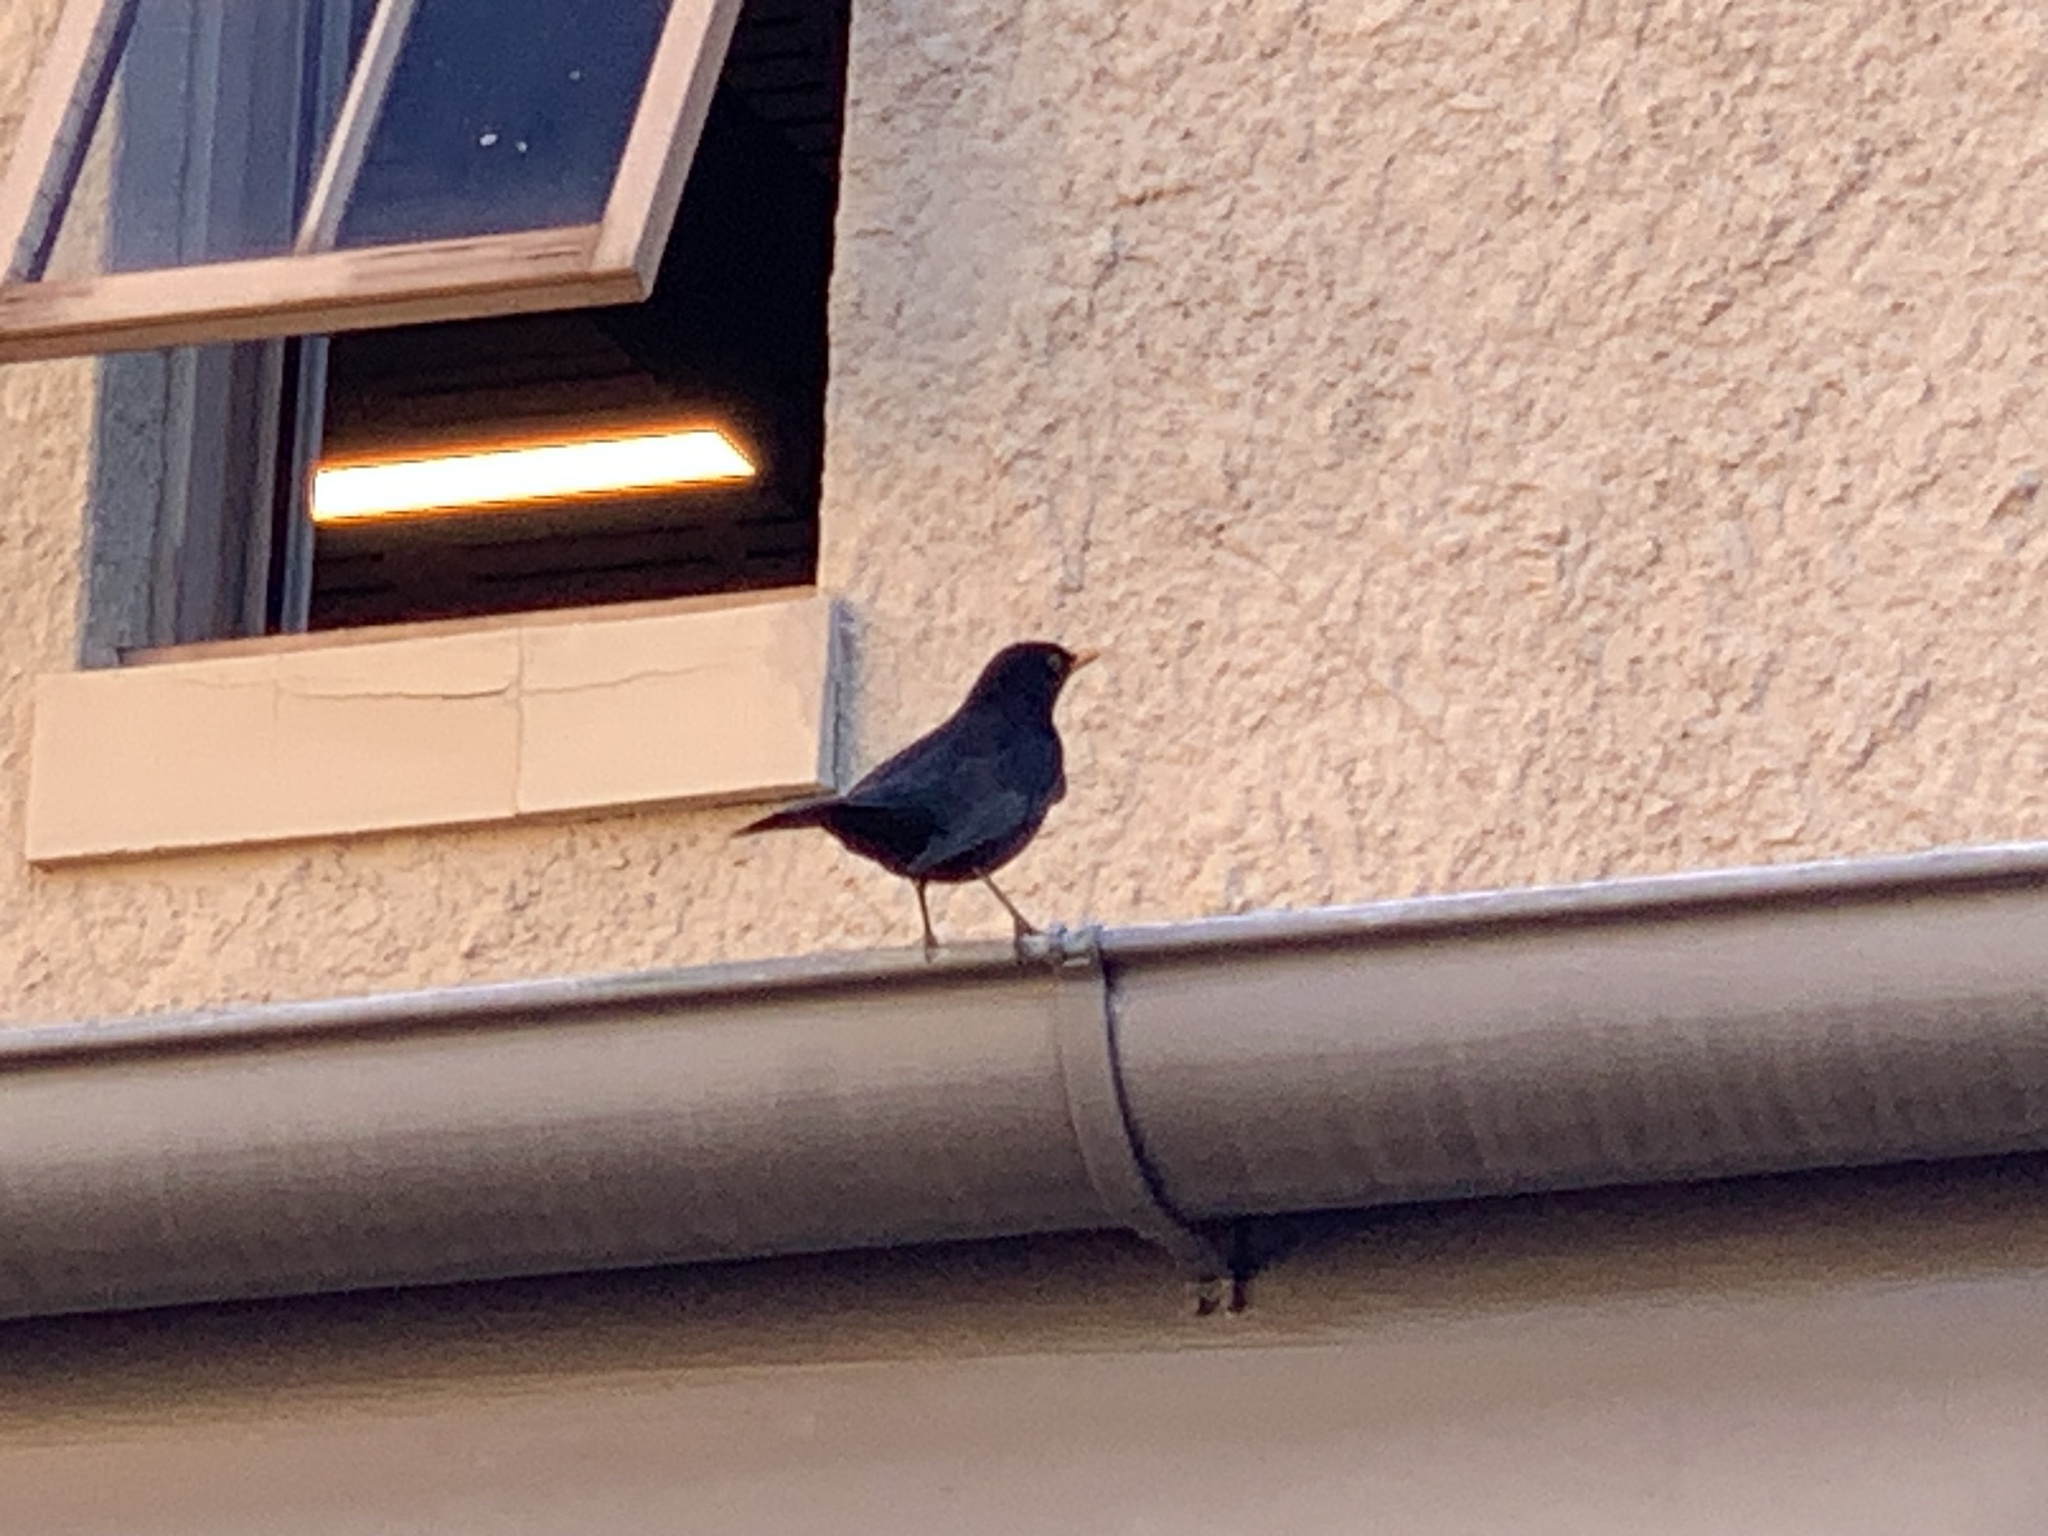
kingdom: Animalia
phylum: Chordata
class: Aves
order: Passeriformes
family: Turdidae
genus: Turdus
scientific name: Turdus merula
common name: Common blackbird
